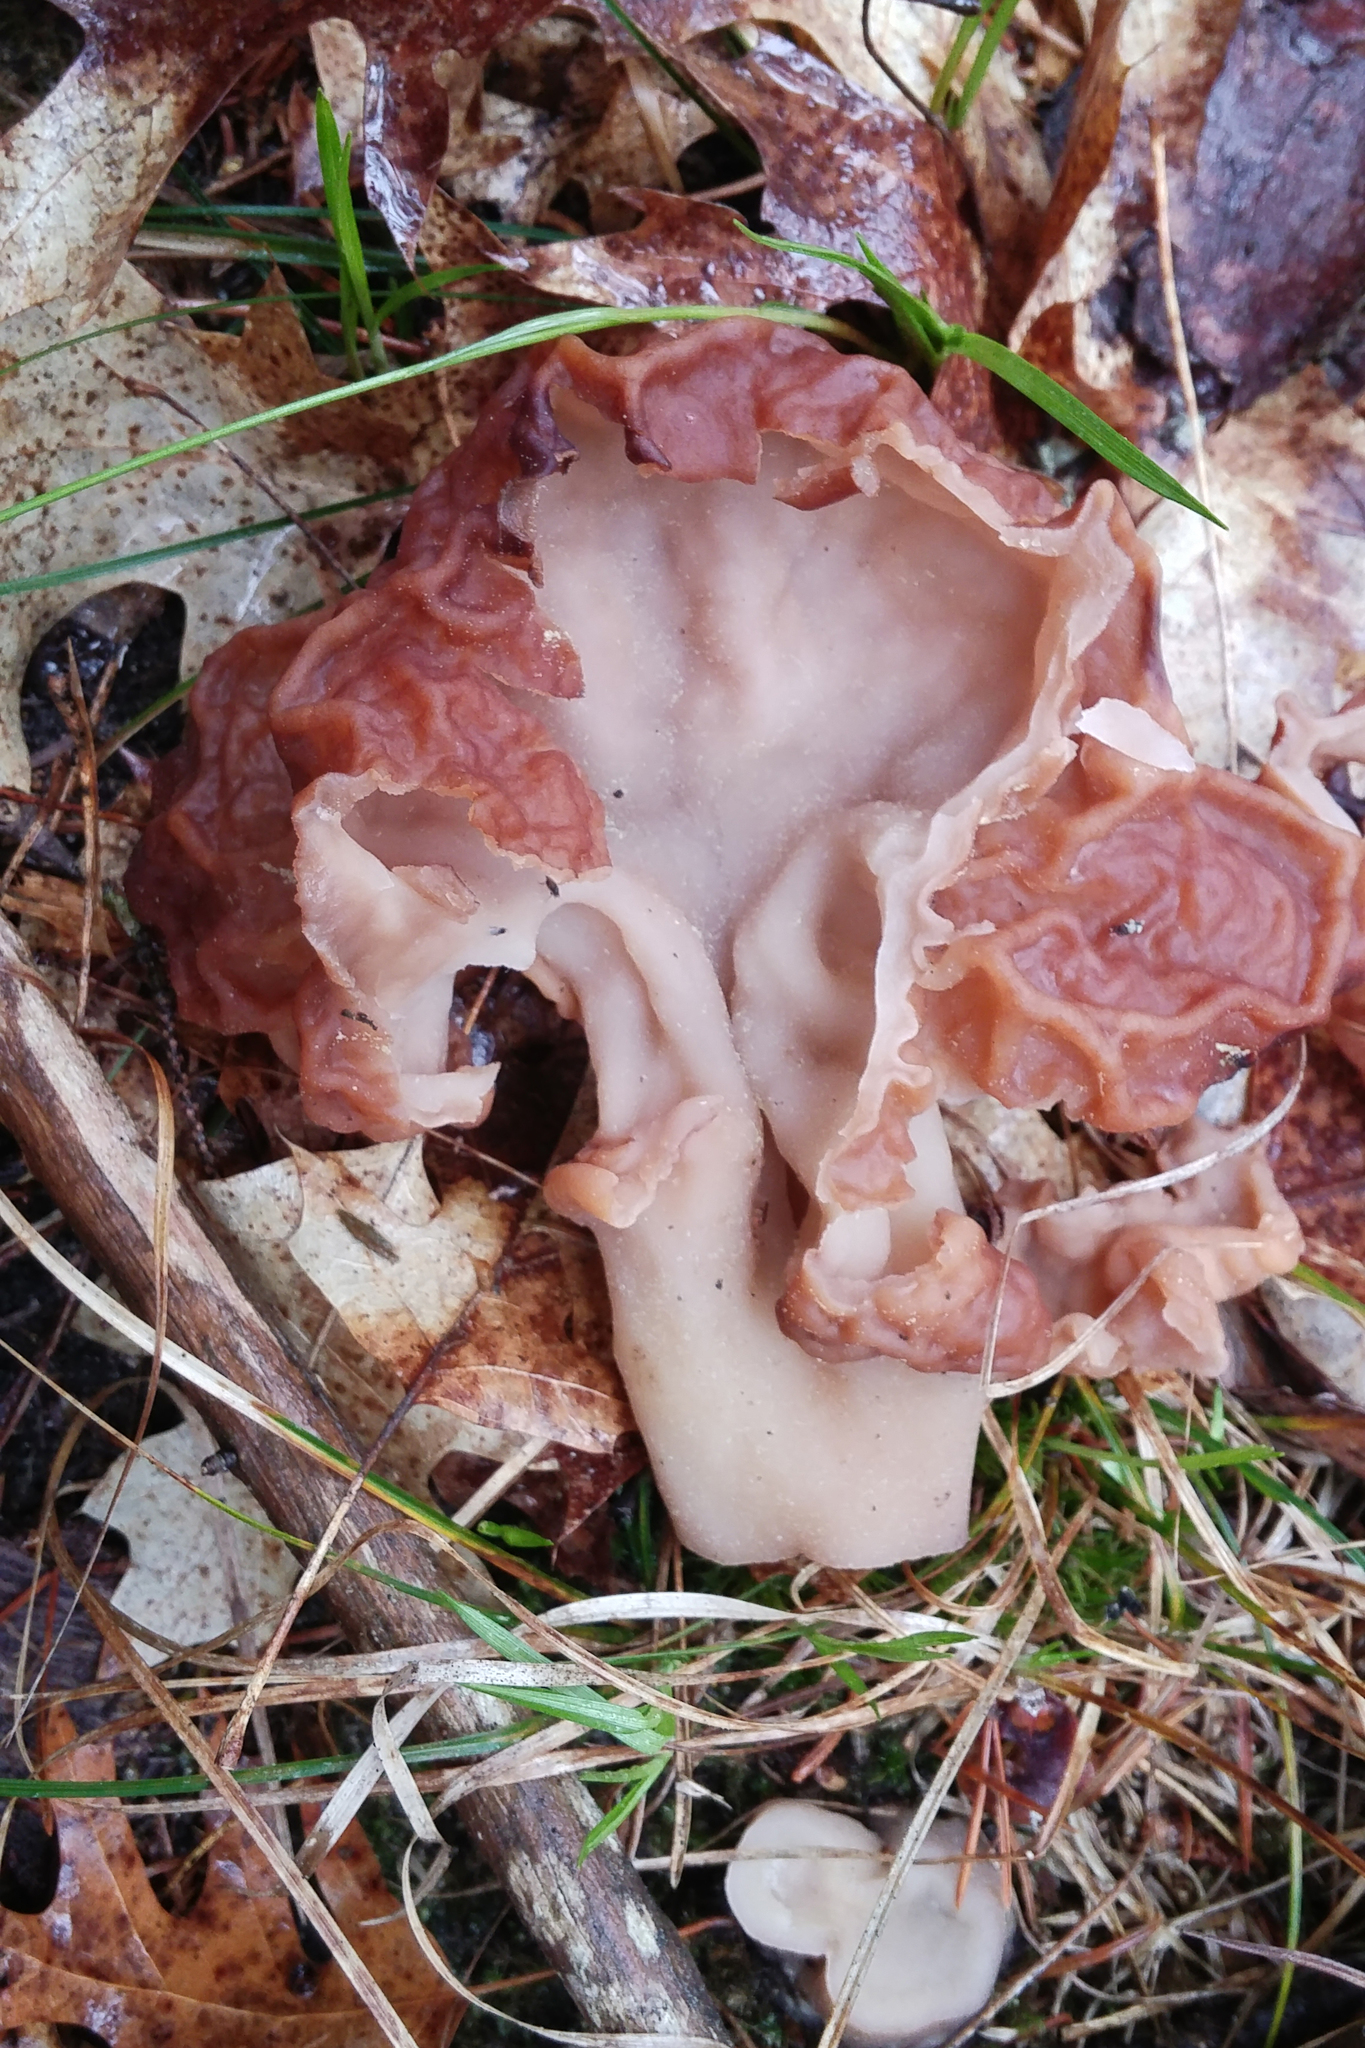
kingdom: Fungi
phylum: Ascomycota
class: Pezizomycetes
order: Pezizales
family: Discinaceae
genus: Gyromitra
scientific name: Gyromitra esculenta
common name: False morel
